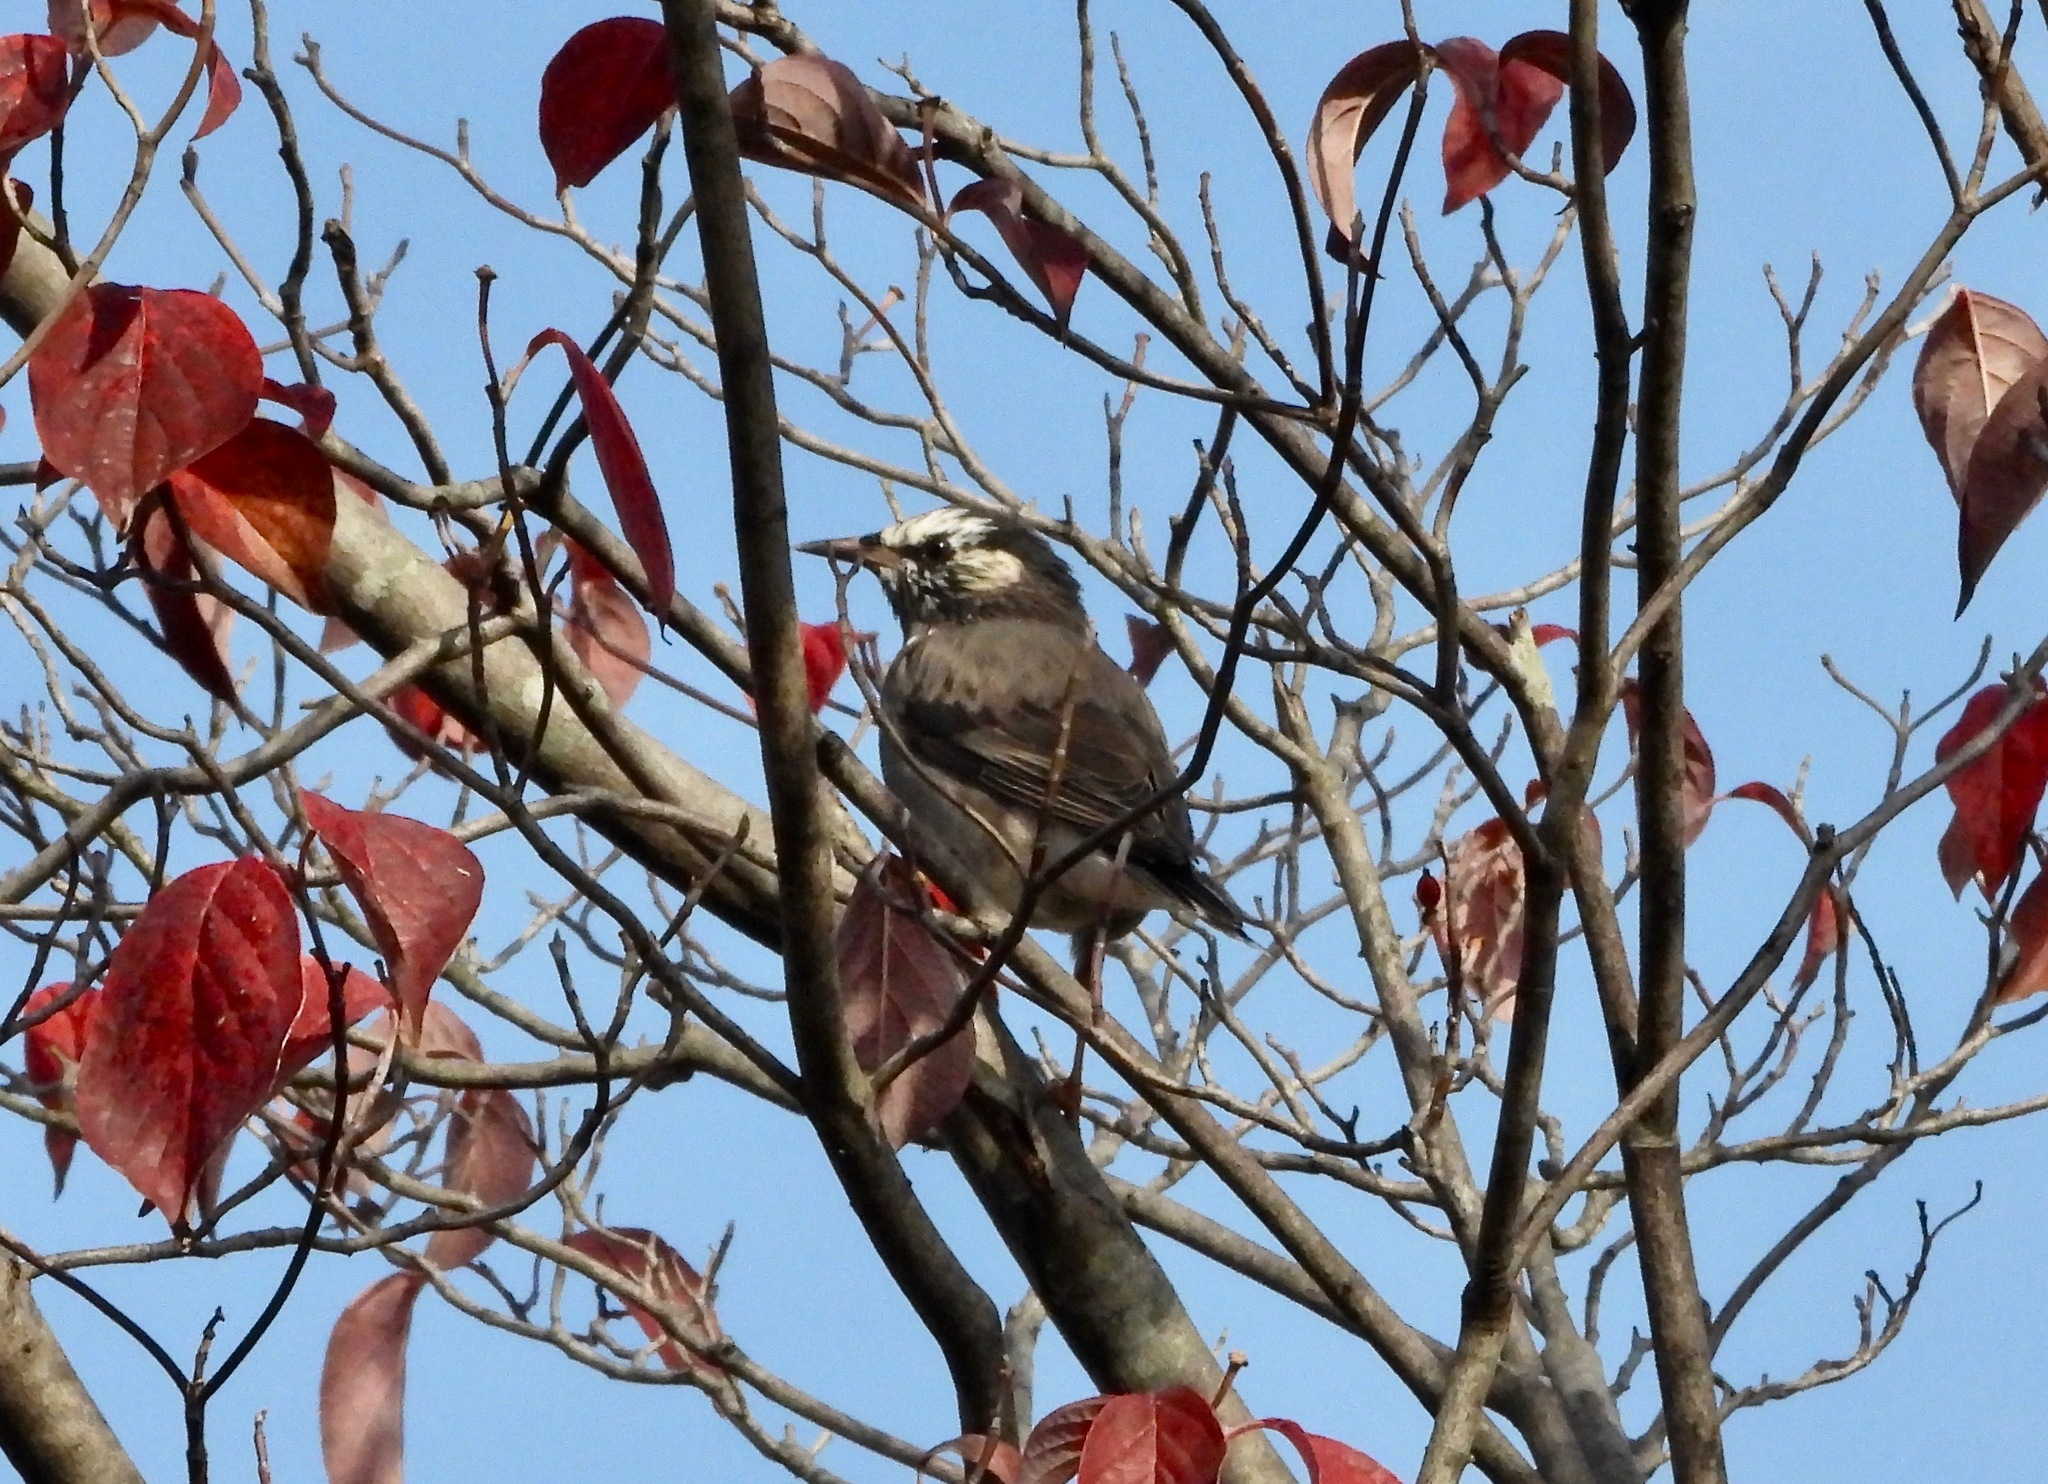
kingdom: Animalia
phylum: Chordata
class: Aves
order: Passeriformes
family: Sturnidae
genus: Spodiopsar
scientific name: Spodiopsar cineraceus
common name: White-cheeked starling
